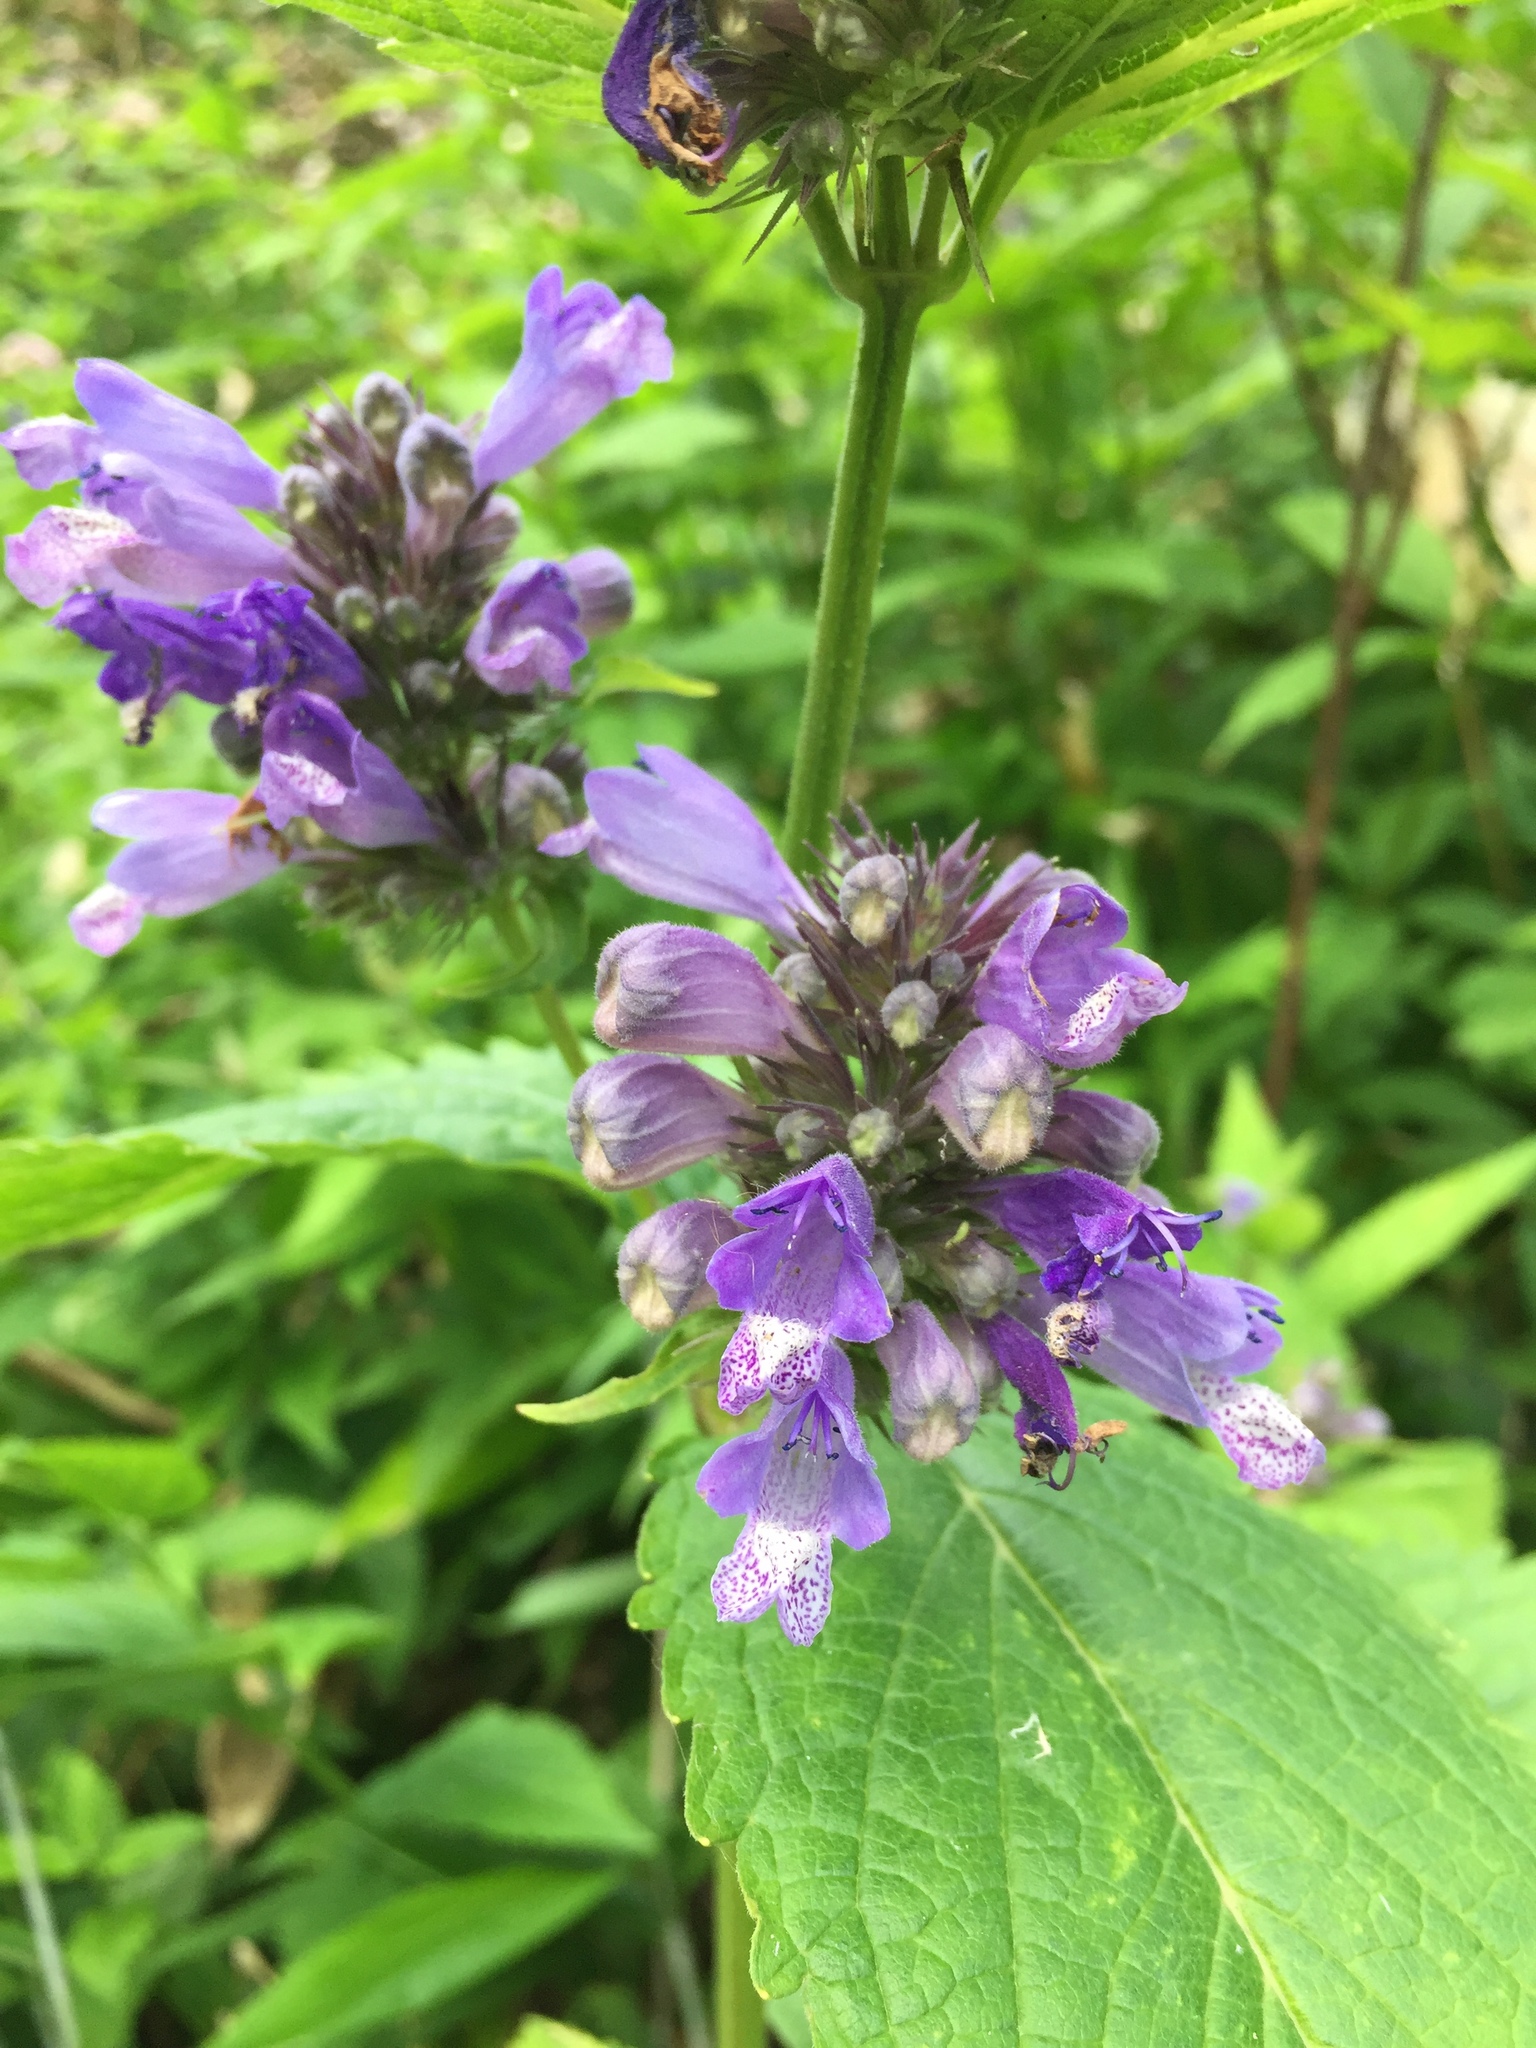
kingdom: Plantae
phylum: Tracheophyta
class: Magnoliopsida
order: Lamiales
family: Lamiaceae
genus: Nepeta
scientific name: Nepeta subsessilis
